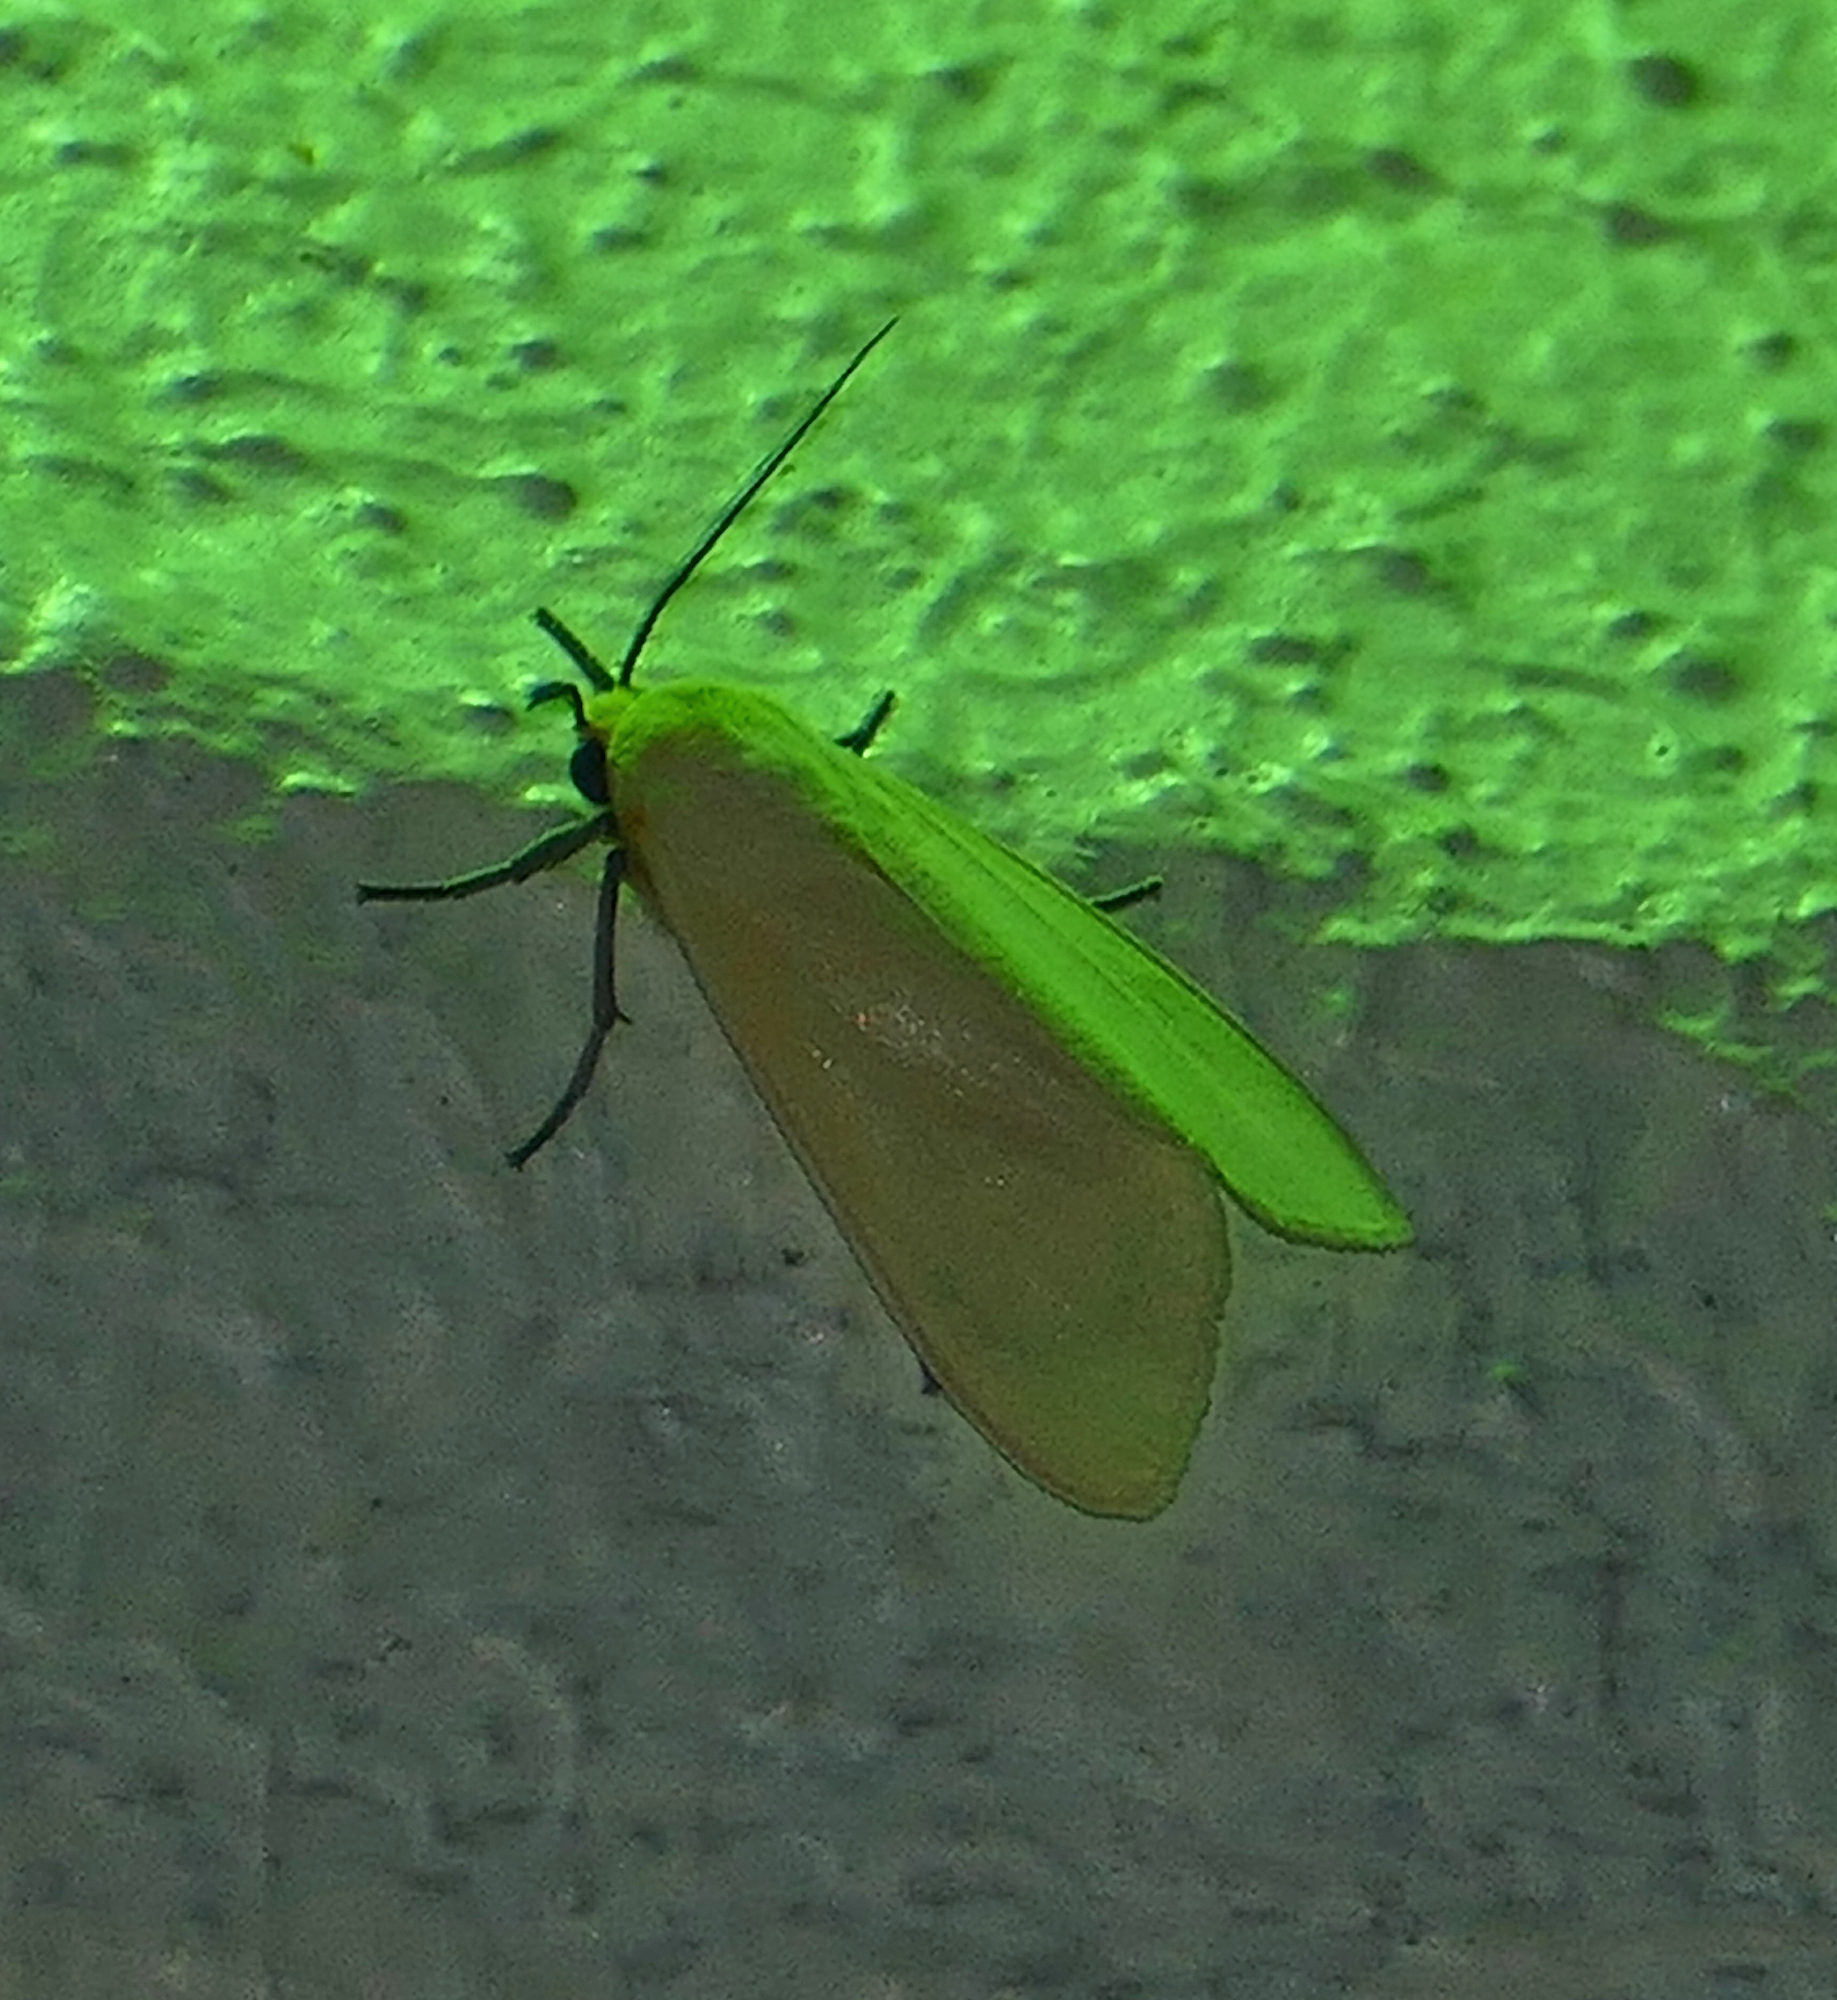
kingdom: Animalia
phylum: Arthropoda
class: Insecta
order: Lepidoptera
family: Erebidae
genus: Pareuchaetes
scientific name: Pareuchaetes insulata
